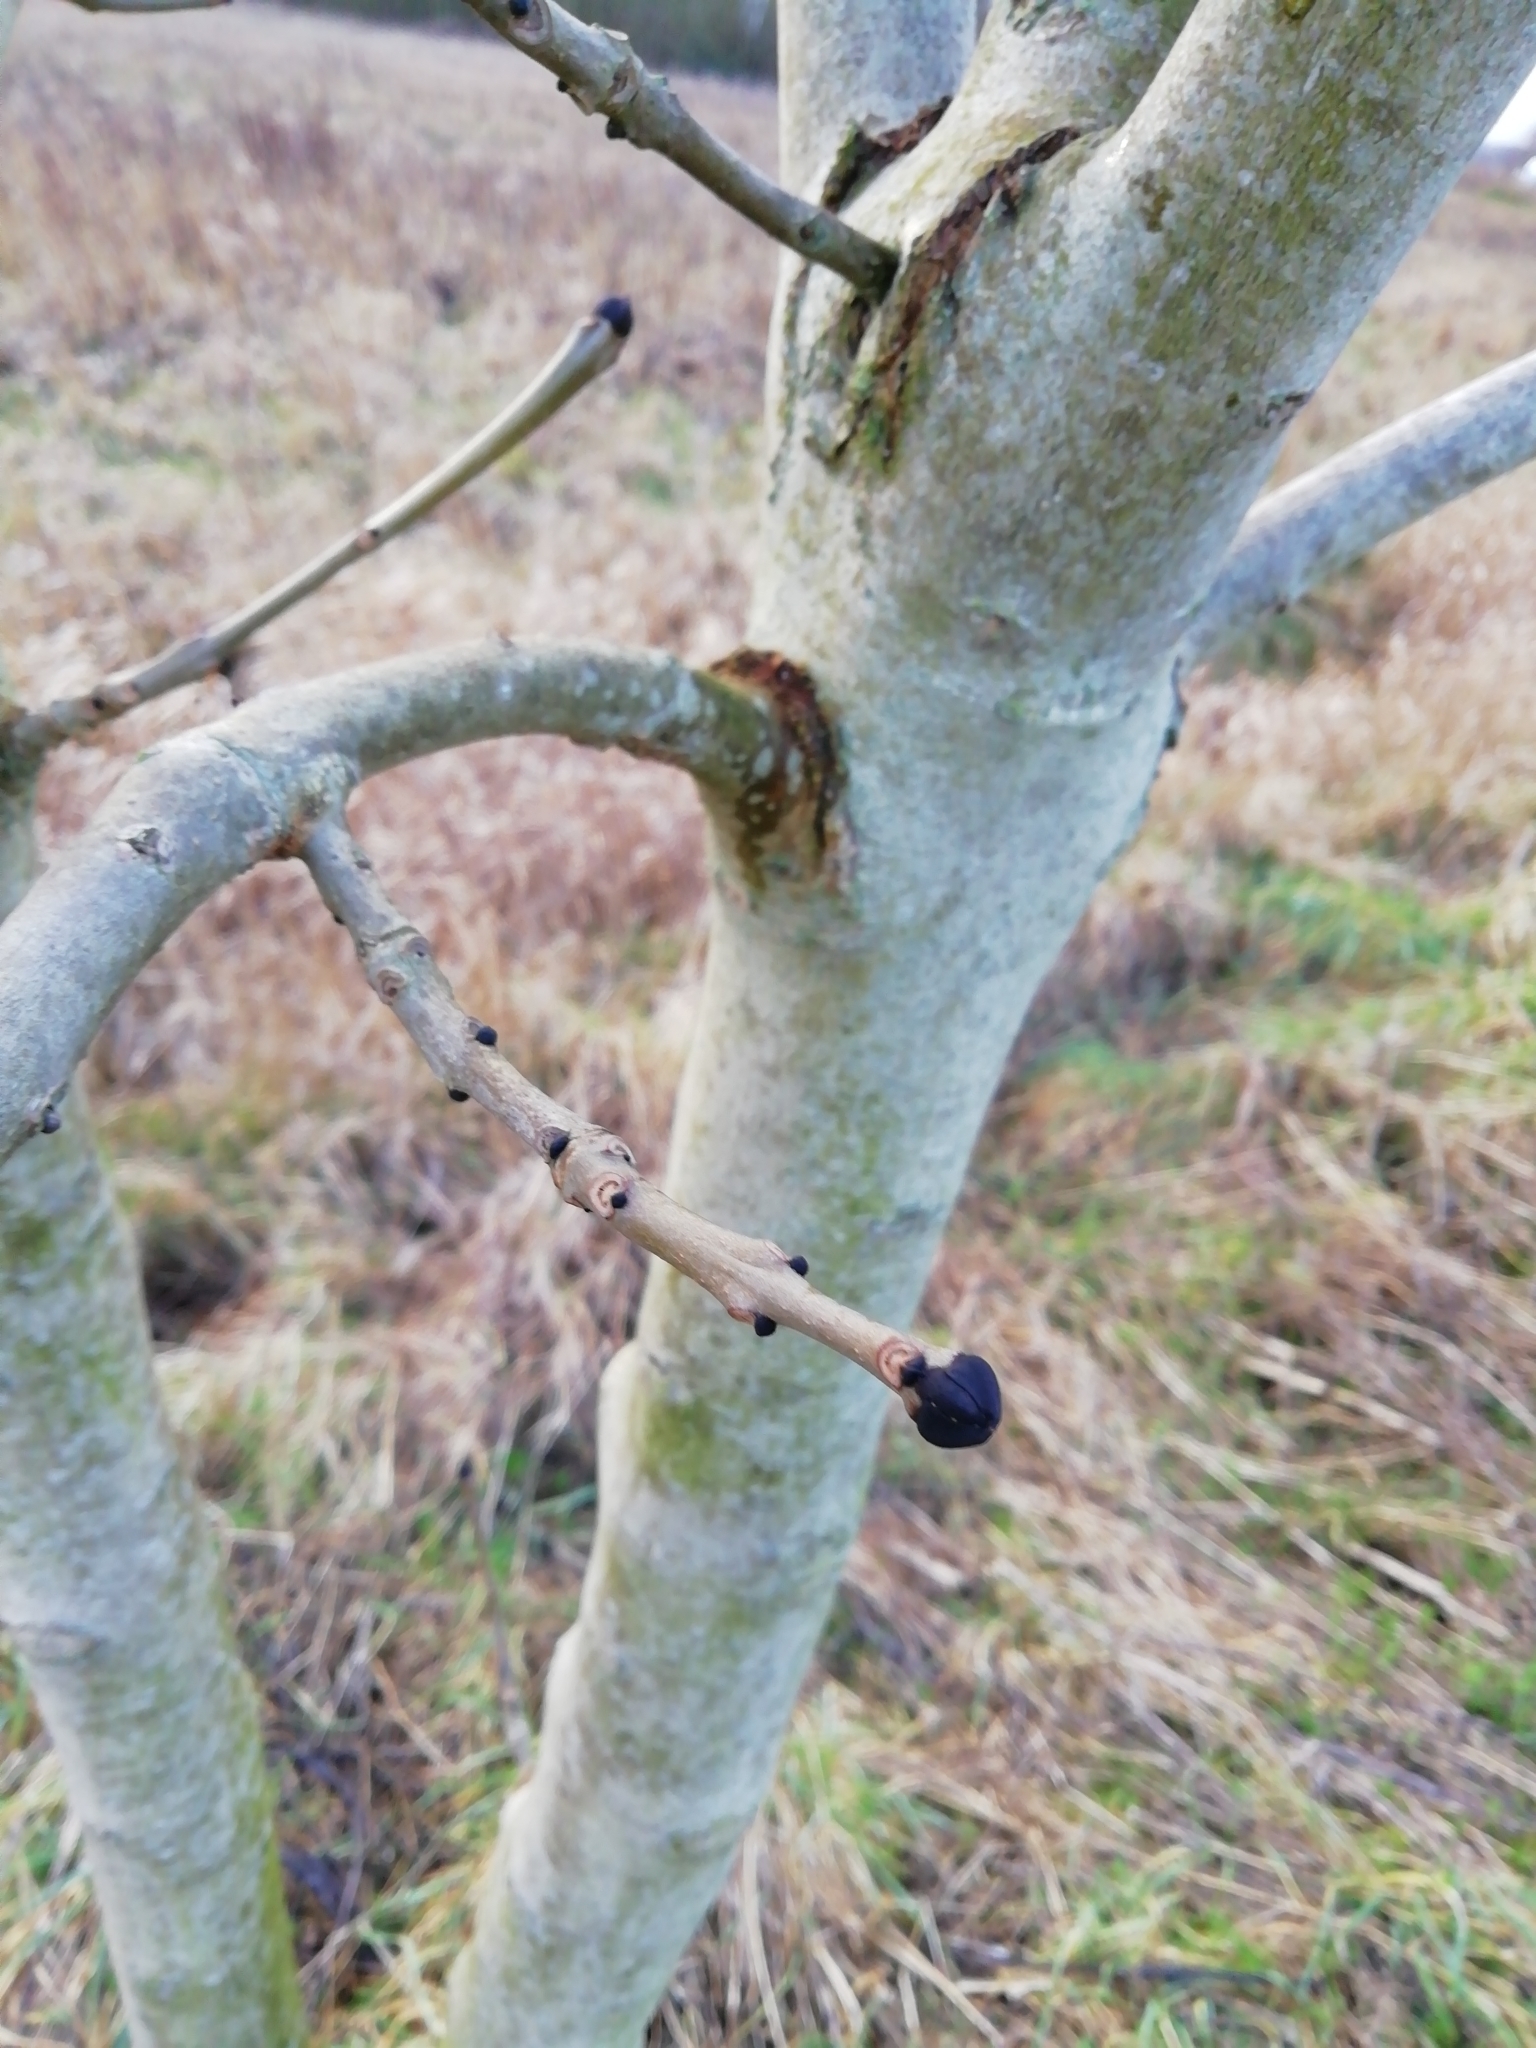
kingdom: Plantae
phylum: Tracheophyta
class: Magnoliopsida
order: Lamiales
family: Oleaceae
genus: Fraxinus
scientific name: Fraxinus excelsior
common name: European ash
